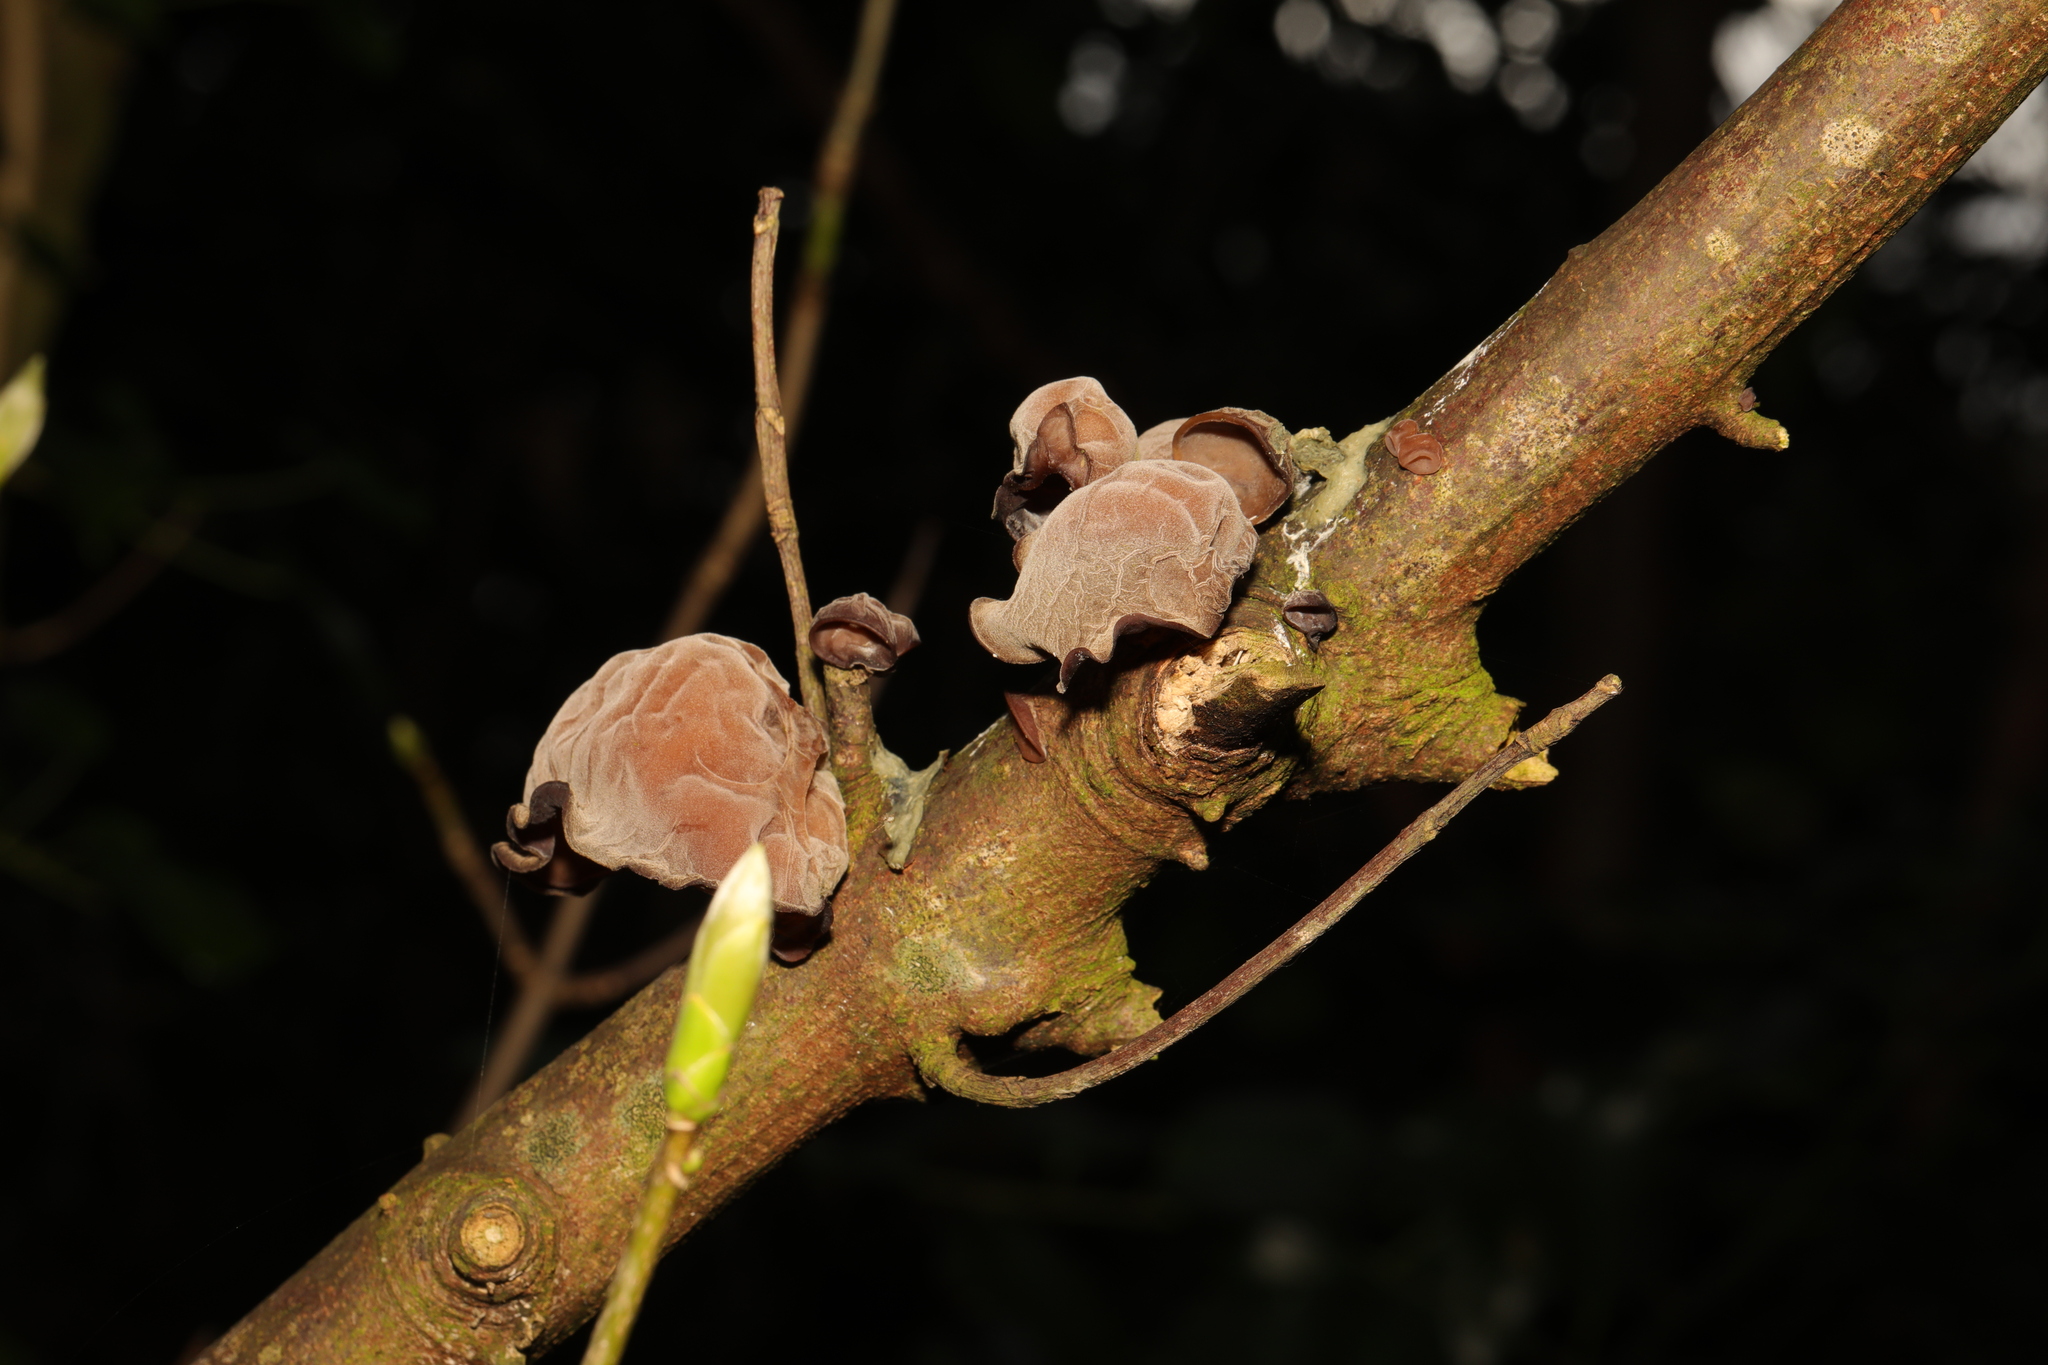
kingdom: Fungi
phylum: Basidiomycota
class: Agaricomycetes
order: Auriculariales
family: Auriculariaceae
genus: Auricularia
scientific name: Auricularia auricula-judae
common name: Jelly ear
